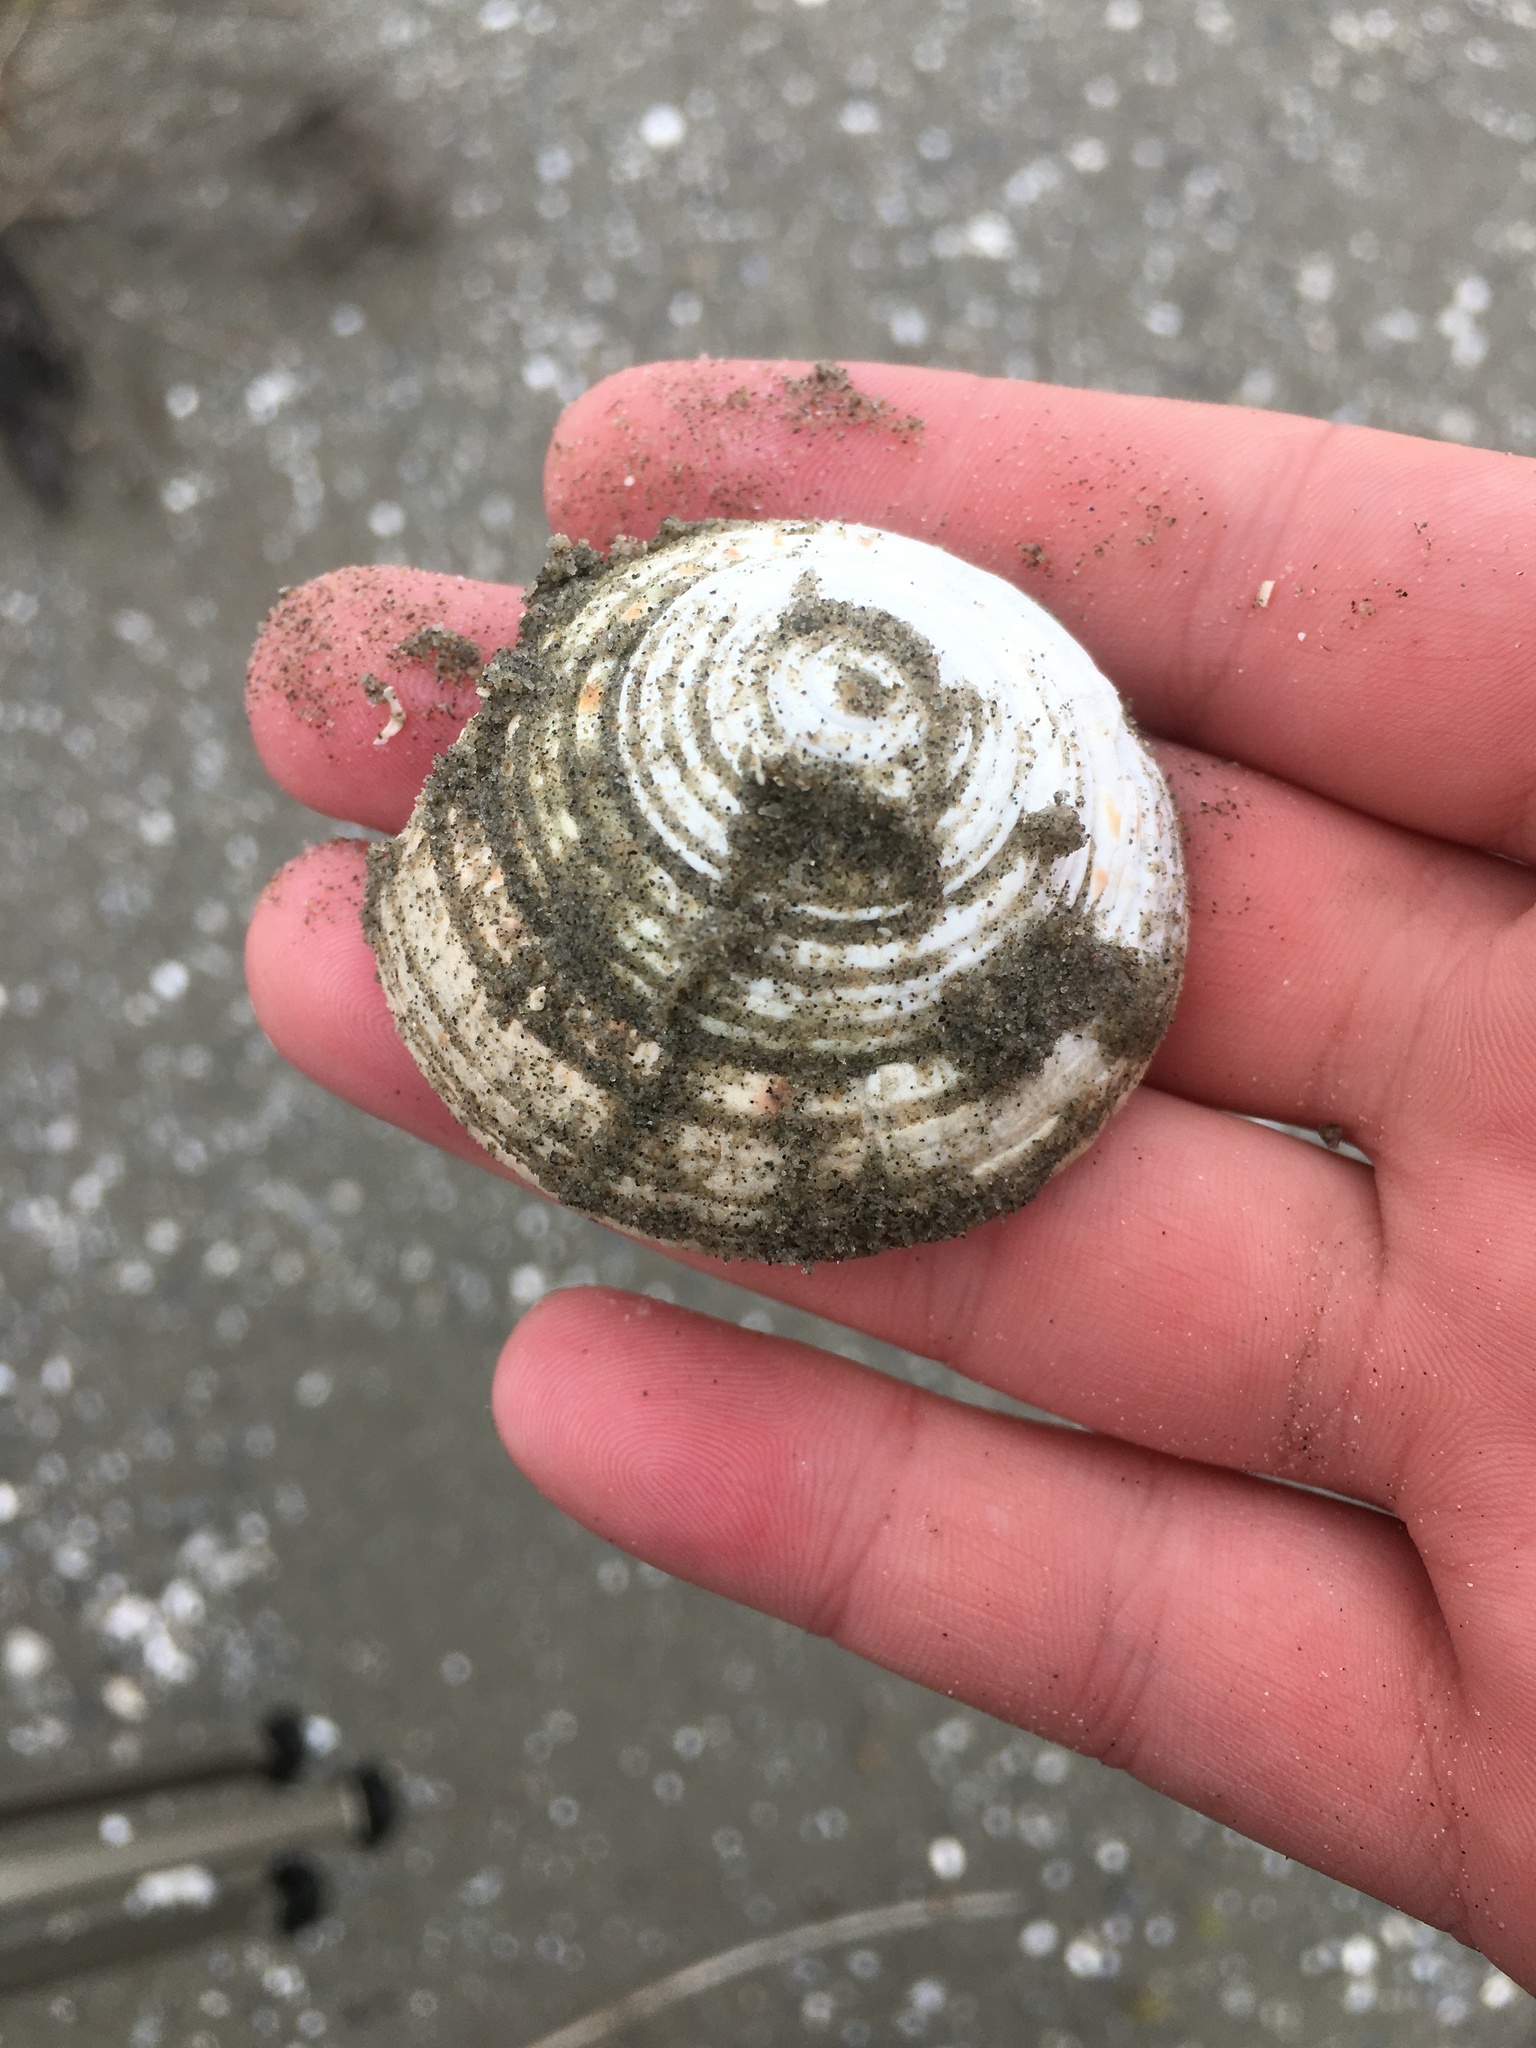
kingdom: Animalia
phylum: Mollusca
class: Gastropoda
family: Architectonicidae
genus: Architectonica
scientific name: Architectonica nobilis
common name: Common sundial
